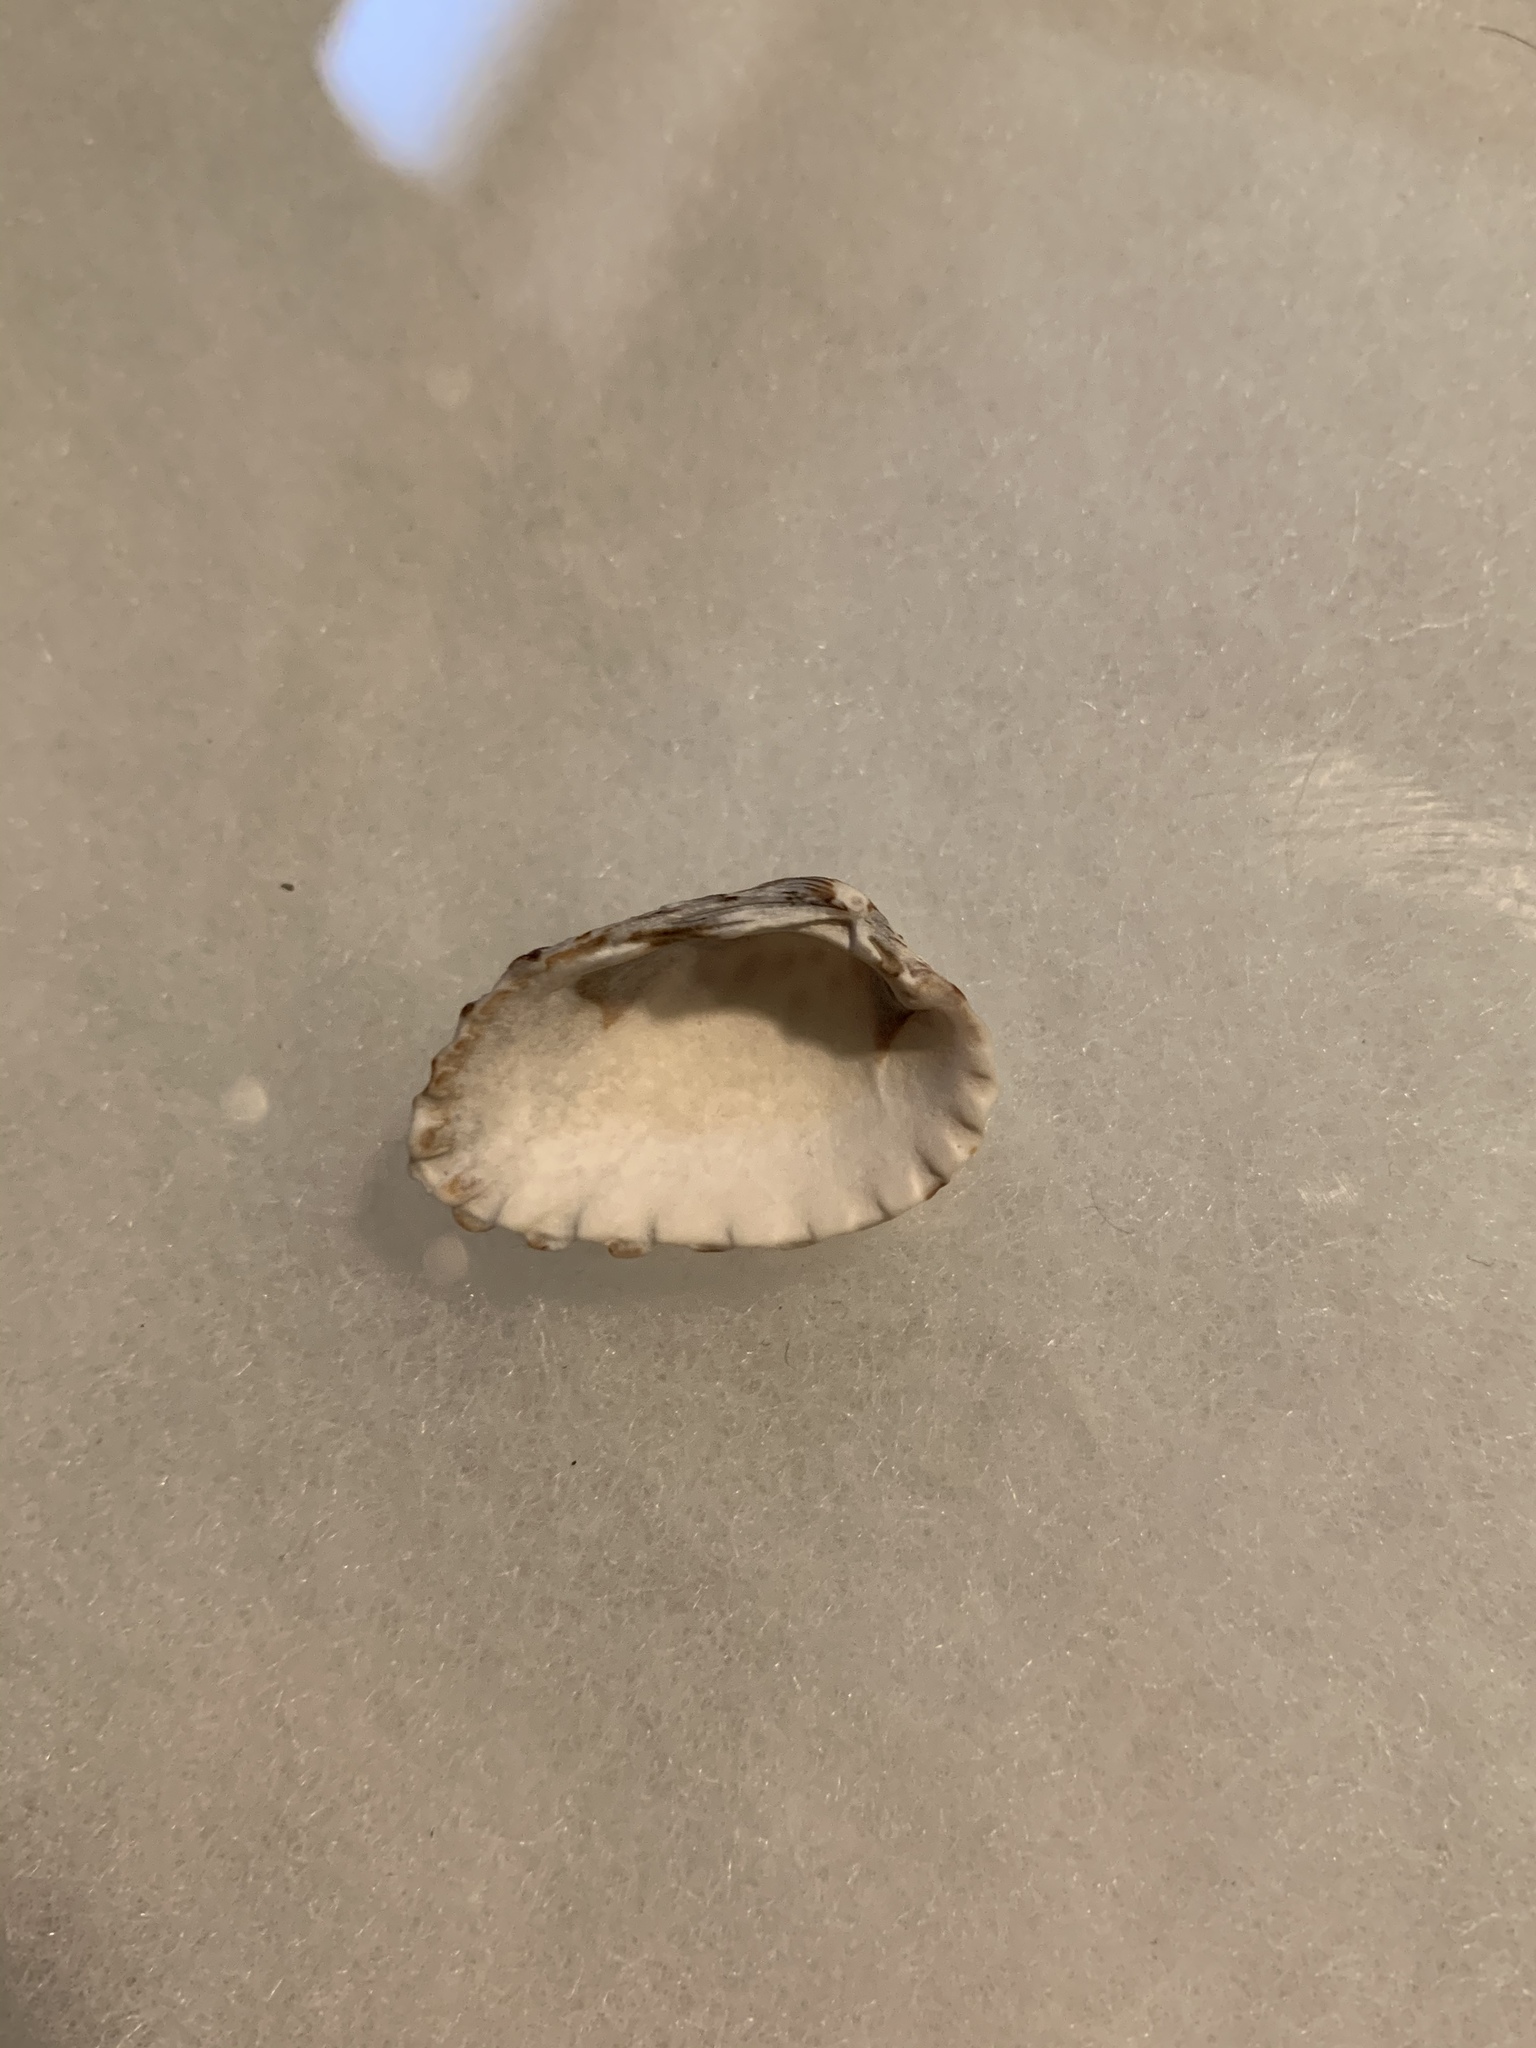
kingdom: Animalia
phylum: Mollusca
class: Bivalvia
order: Carditida
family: Carditidae
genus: Cardites
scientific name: Cardites floridanus
